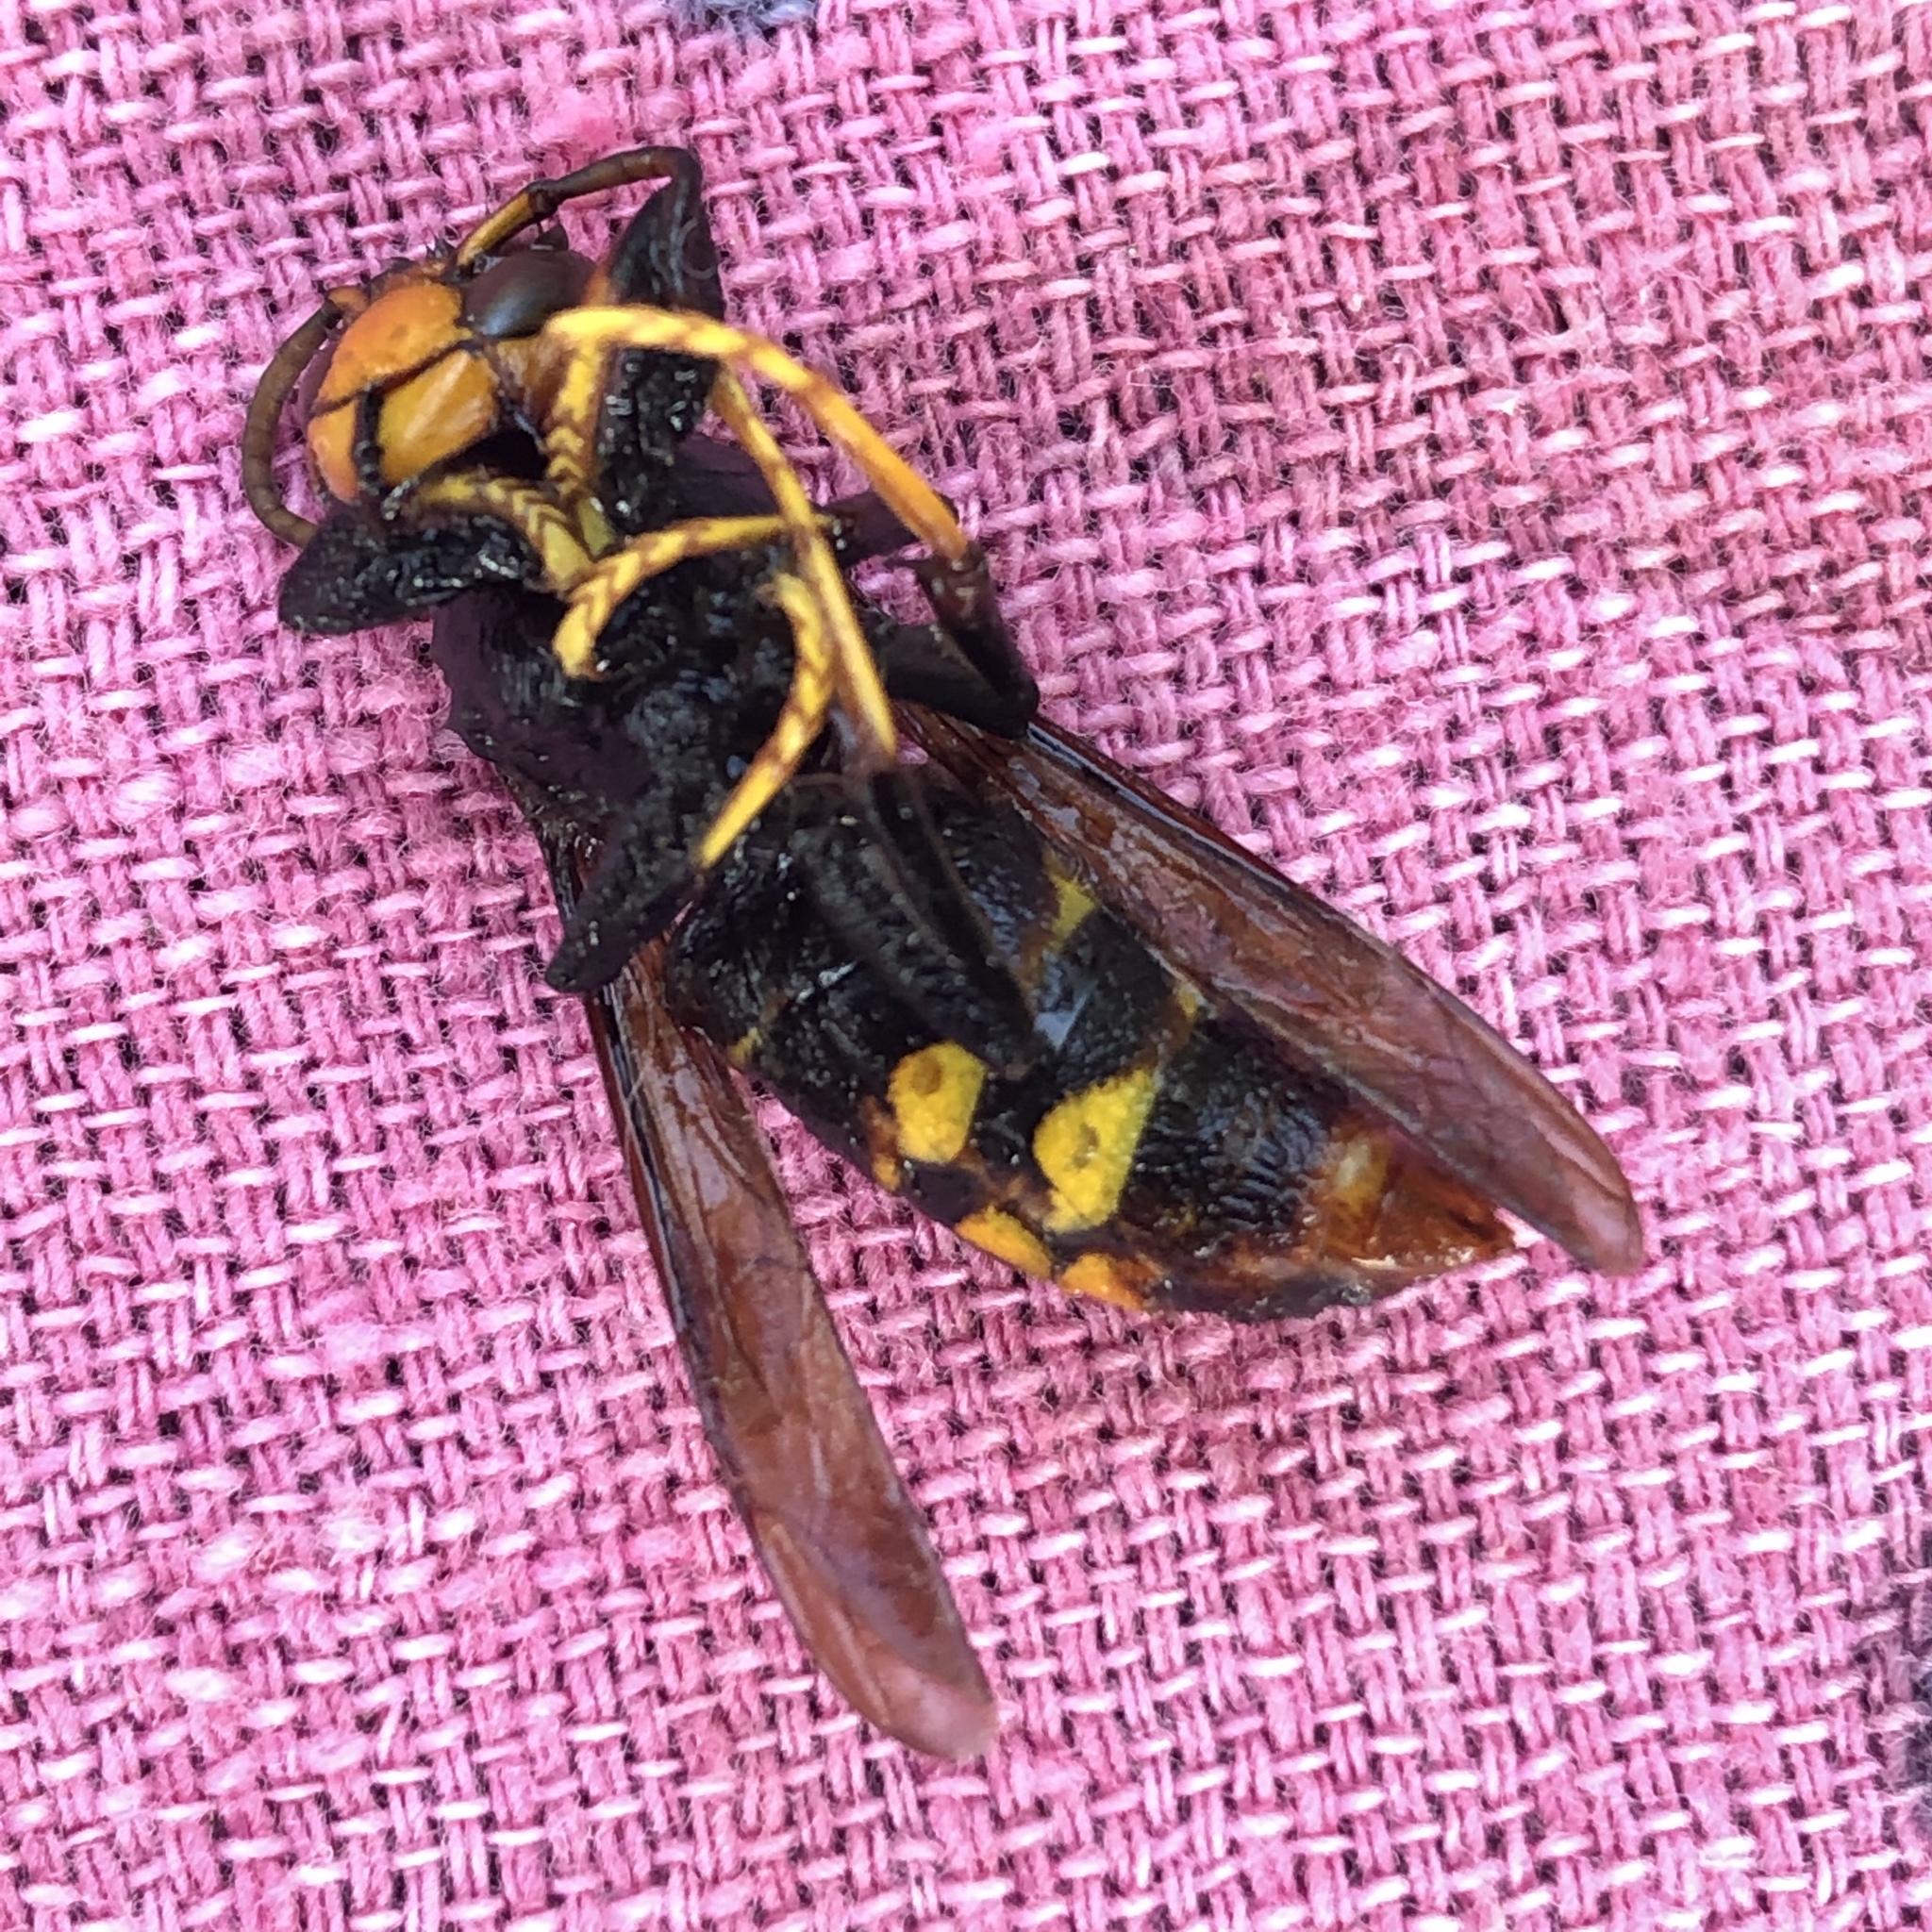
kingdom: Animalia
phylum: Arthropoda
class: Insecta
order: Hymenoptera
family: Vespidae
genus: Vespa
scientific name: Vespa velutina
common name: Asian hornet
